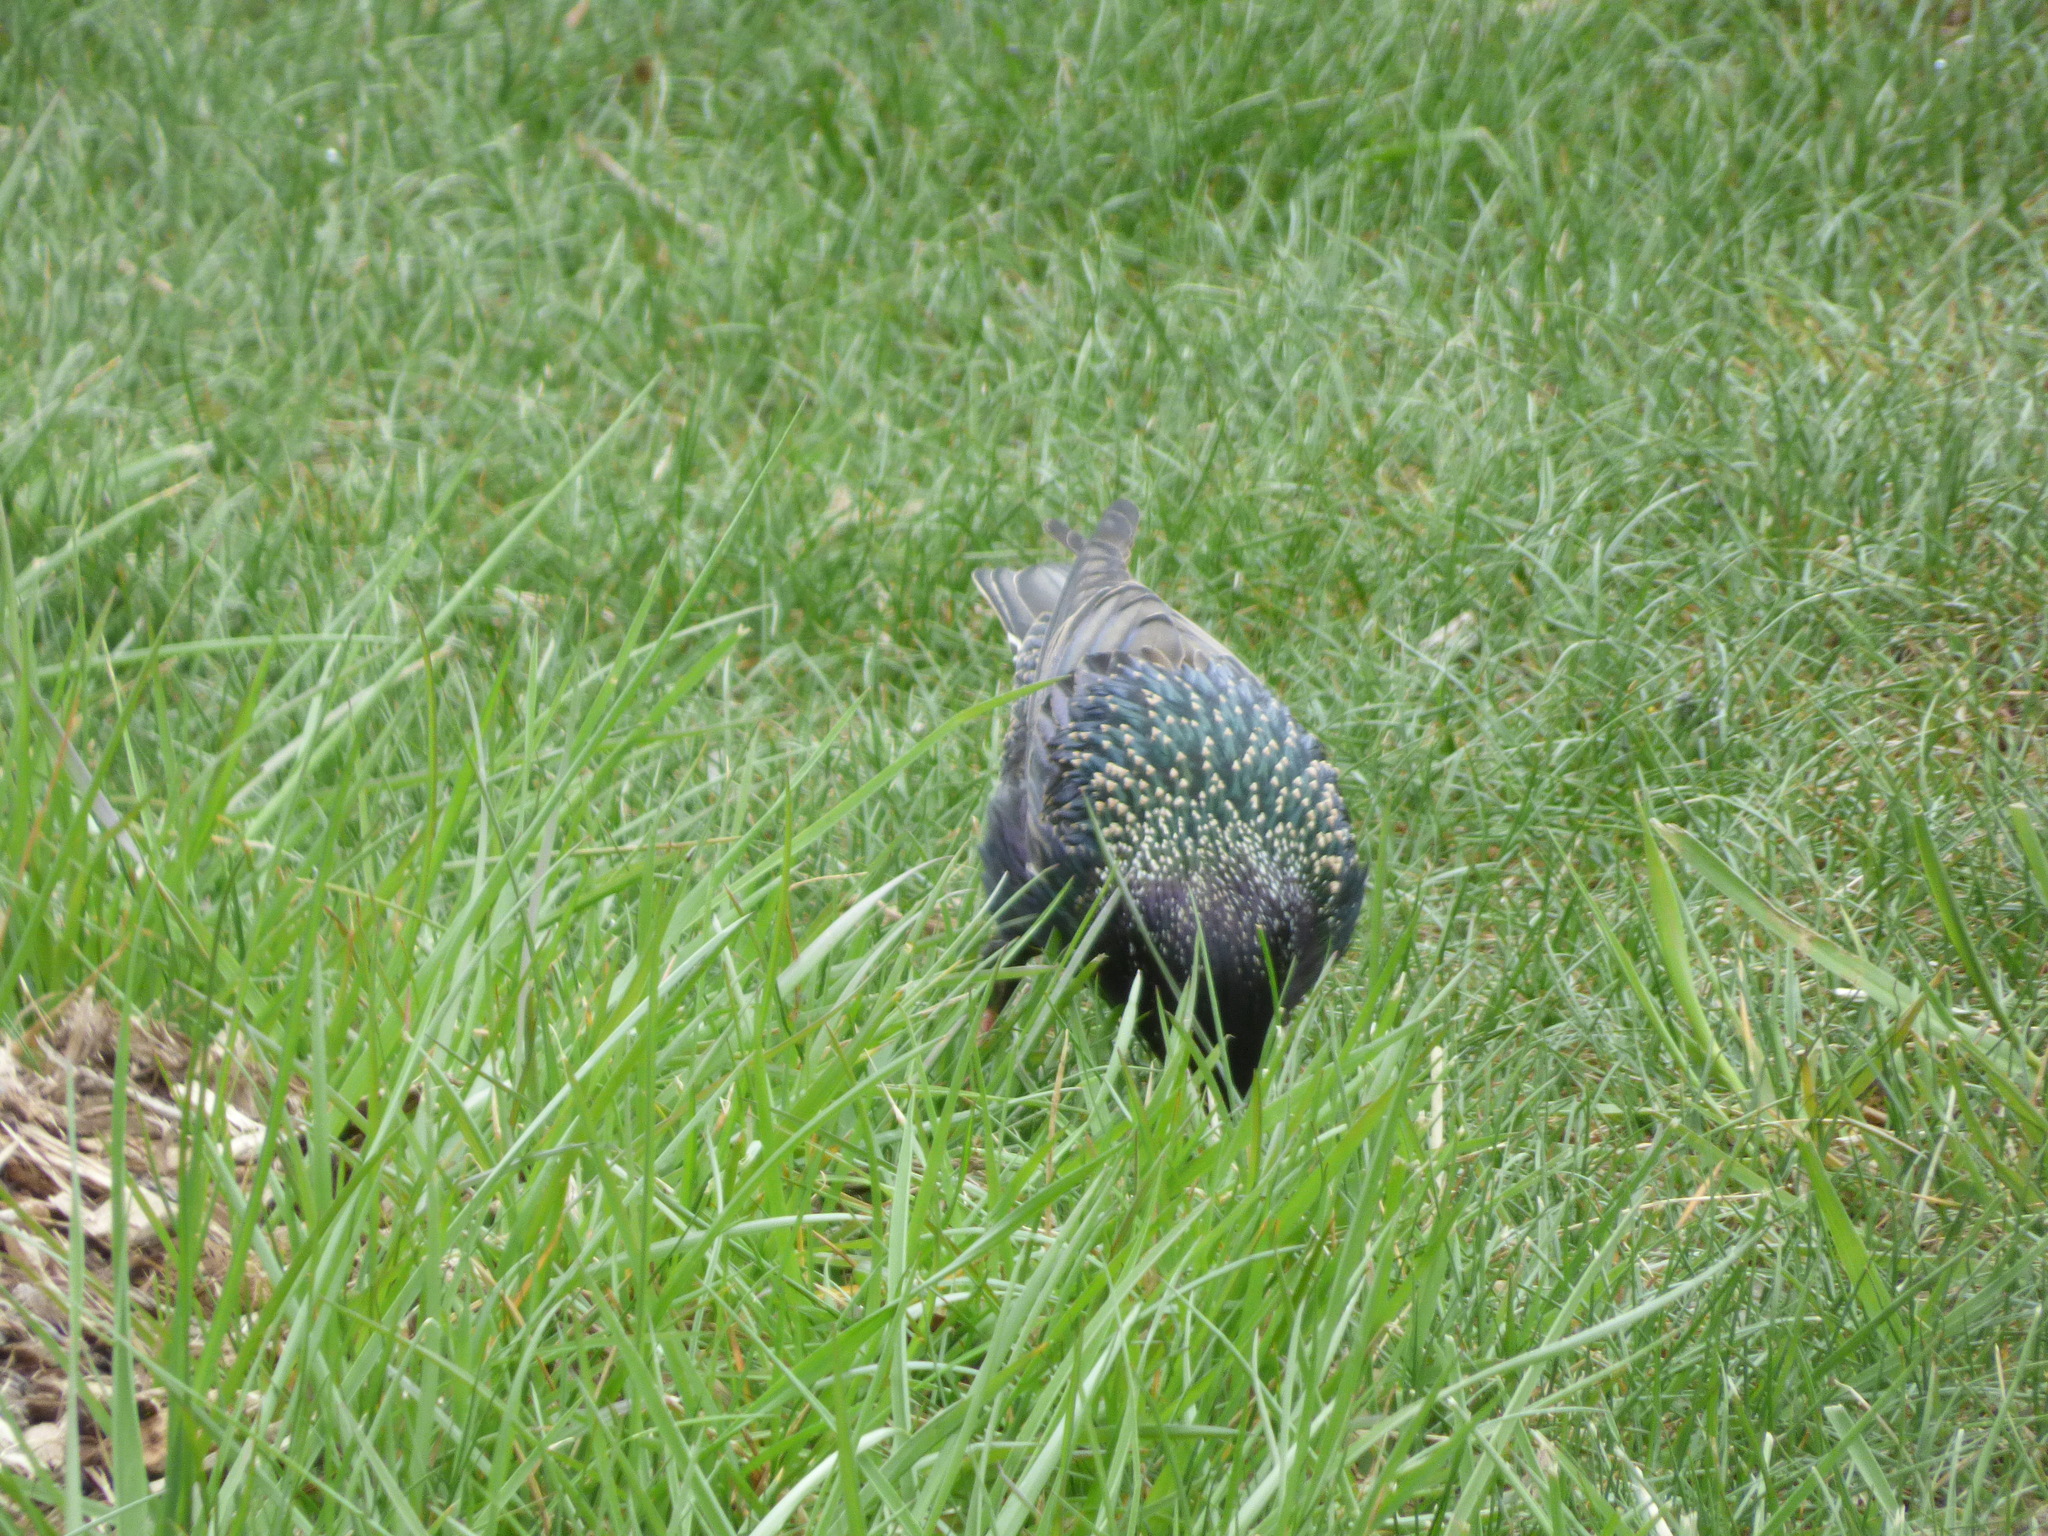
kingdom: Animalia
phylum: Chordata
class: Aves
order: Passeriformes
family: Sturnidae
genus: Sturnus
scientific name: Sturnus vulgaris
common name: Common starling
